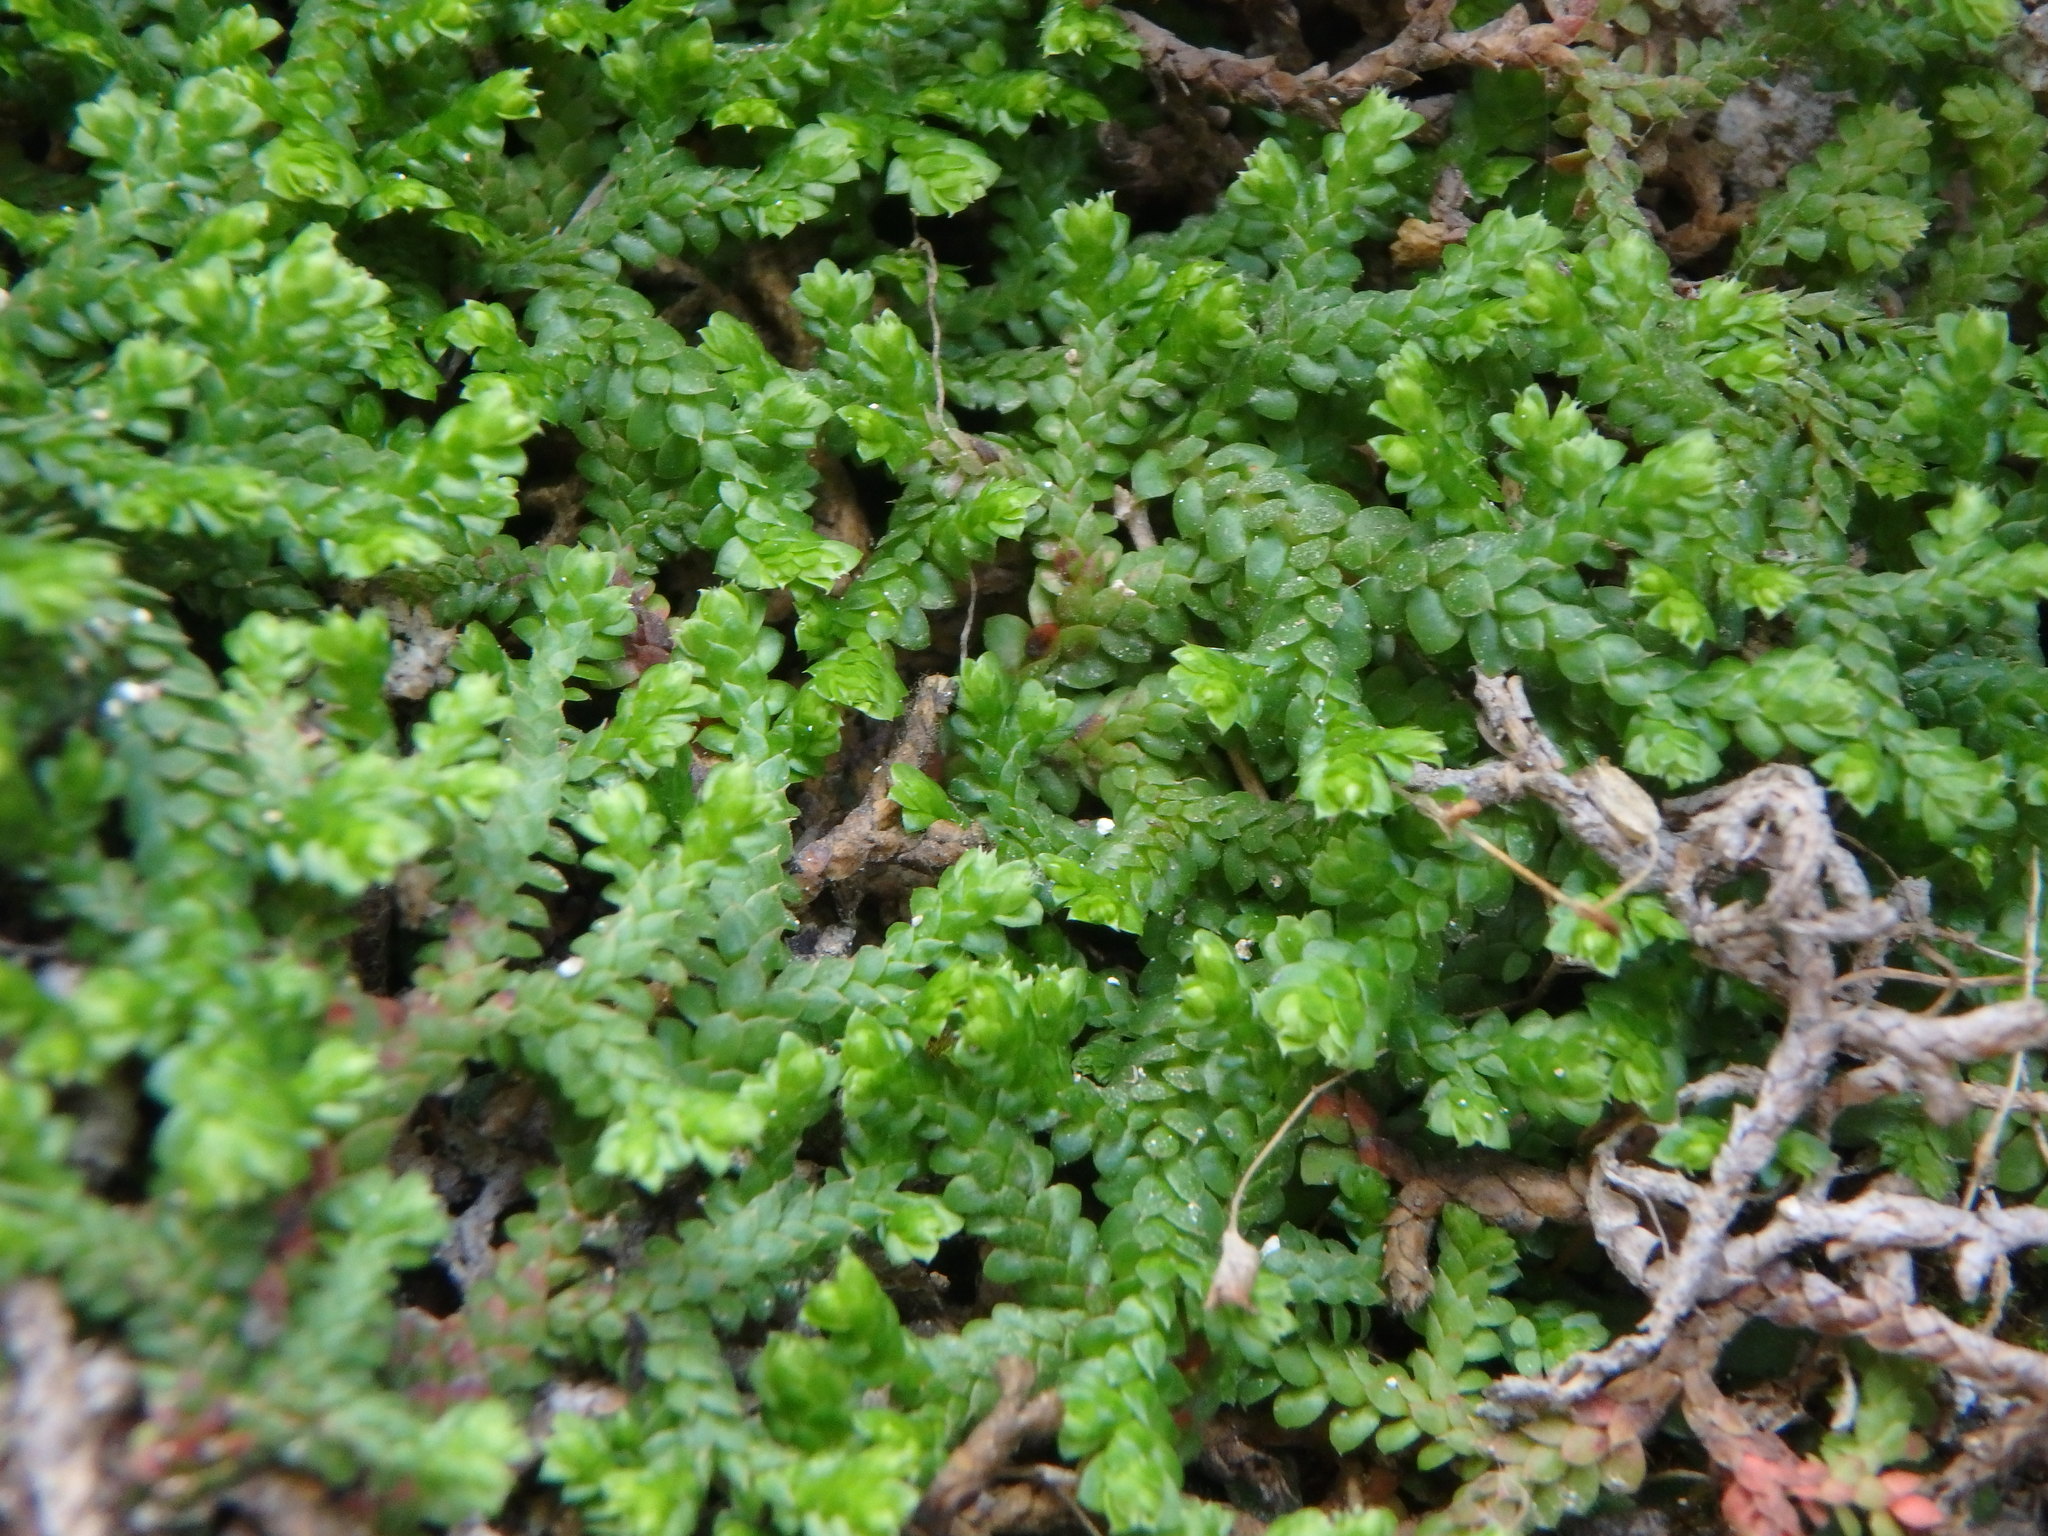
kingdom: Plantae
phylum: Tracheophyta
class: Lycopodiopsida
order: Selaginellales
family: Selaginellaceae
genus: Selaginella
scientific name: Selaginella denticulata
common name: Toothed-leaved clubmoss
